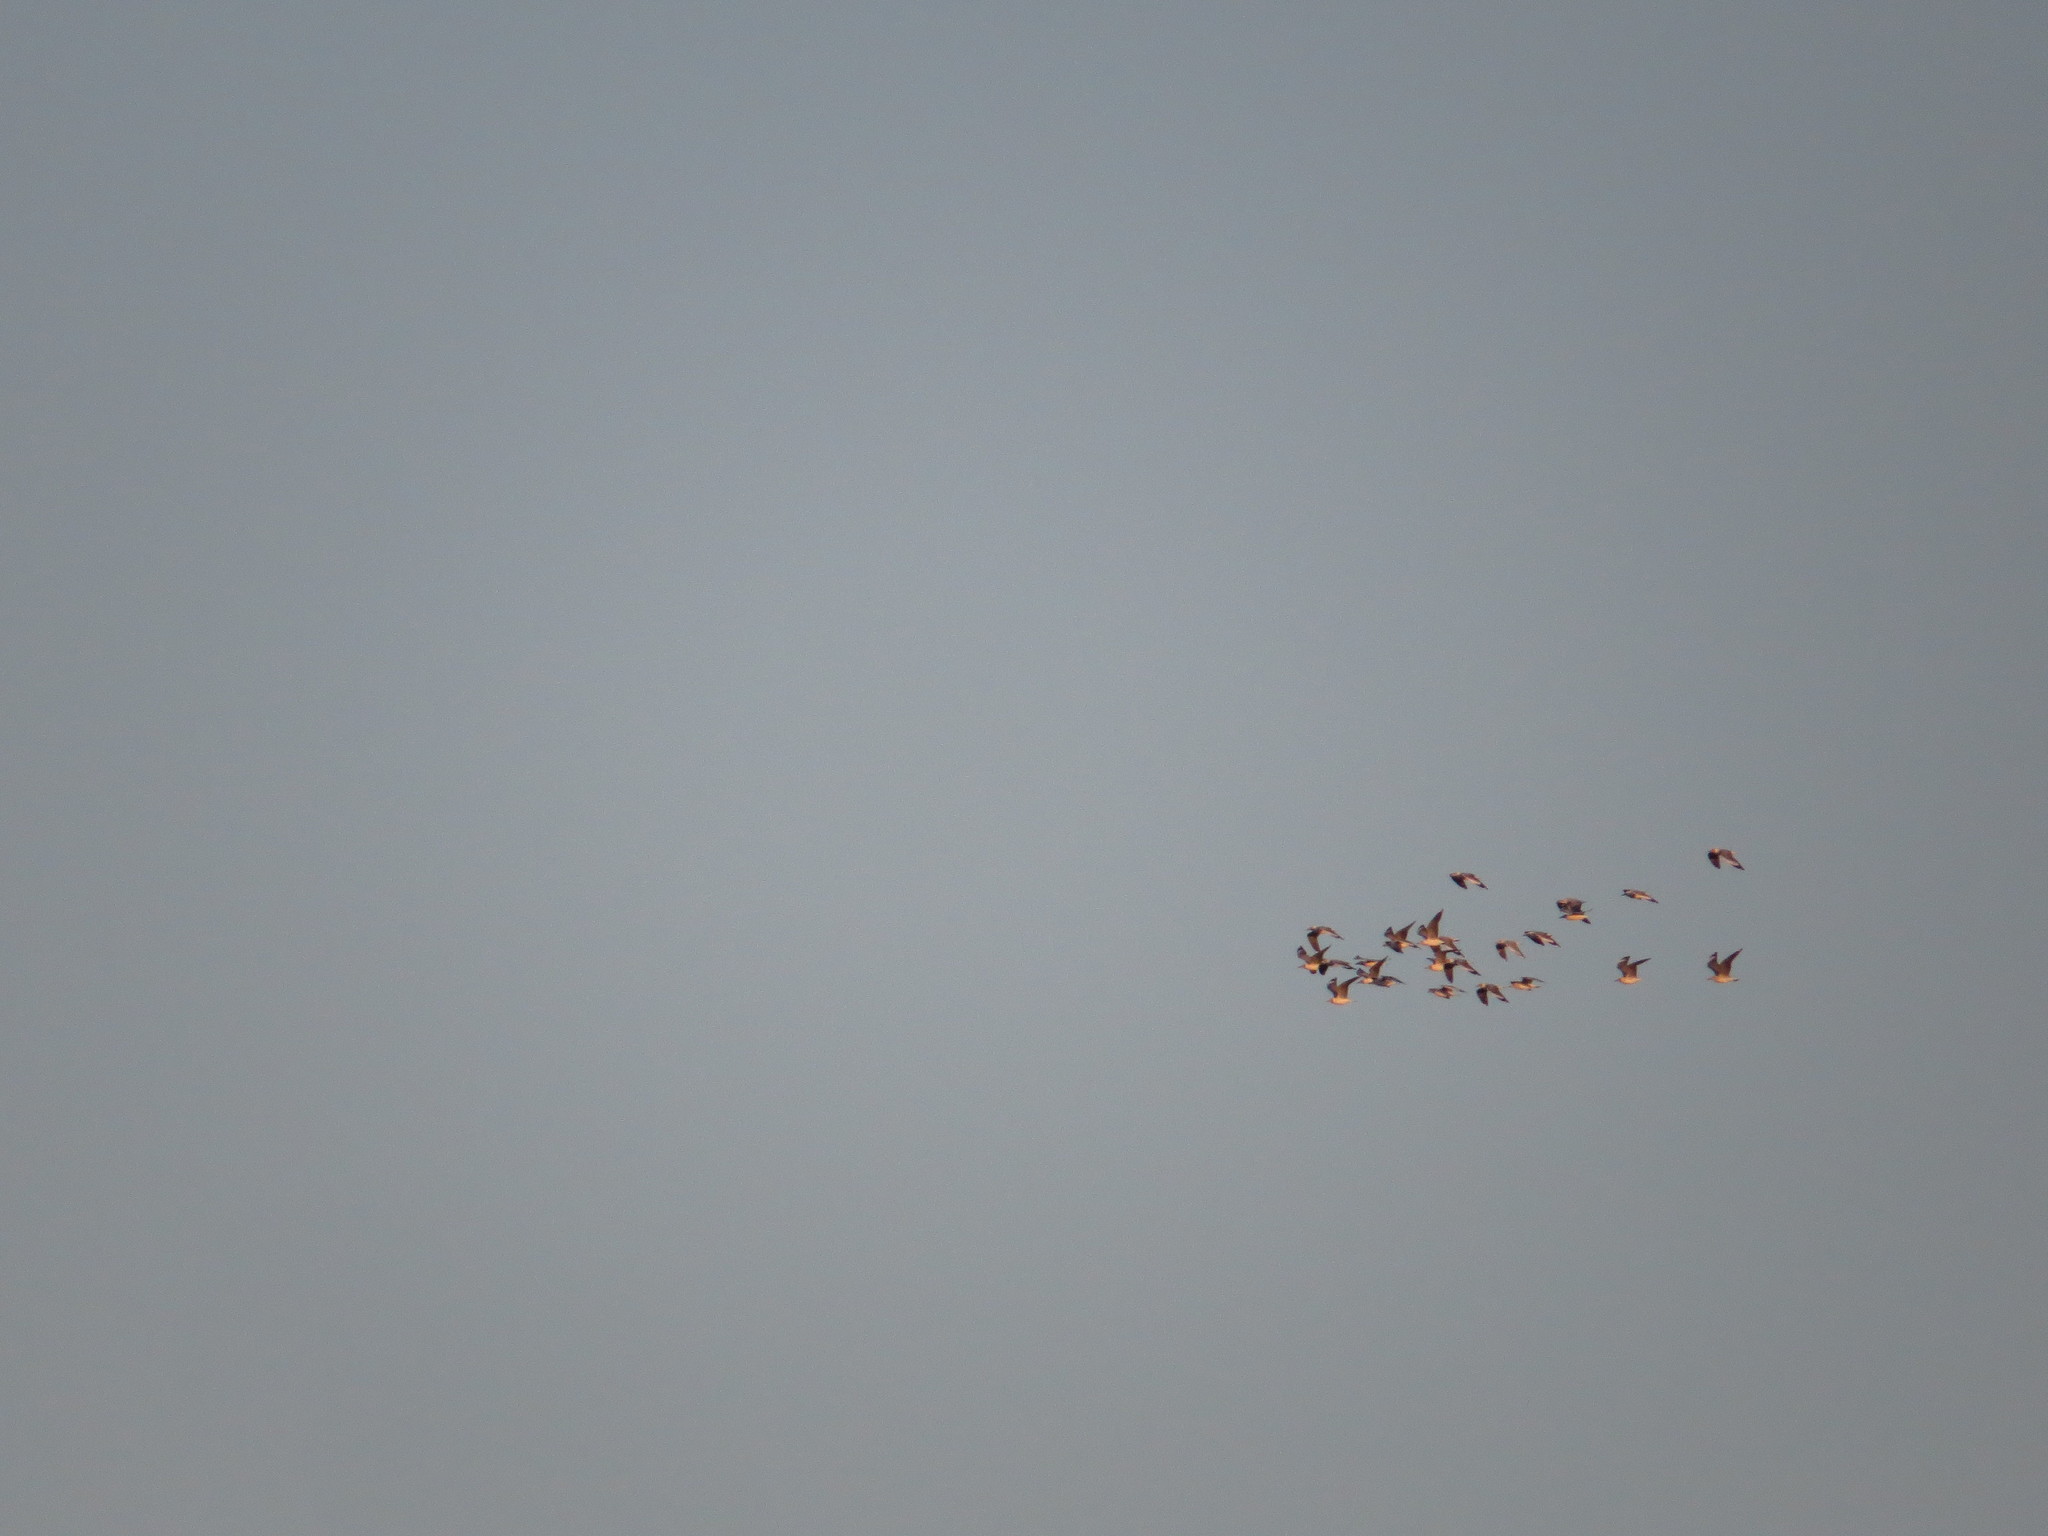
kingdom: Animalia
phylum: Chordata
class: Aves
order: Charadriiformes
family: Laridae
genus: Chroicocephalus
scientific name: Chroicocephalus cirrocephalus
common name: Grey-headed gull
